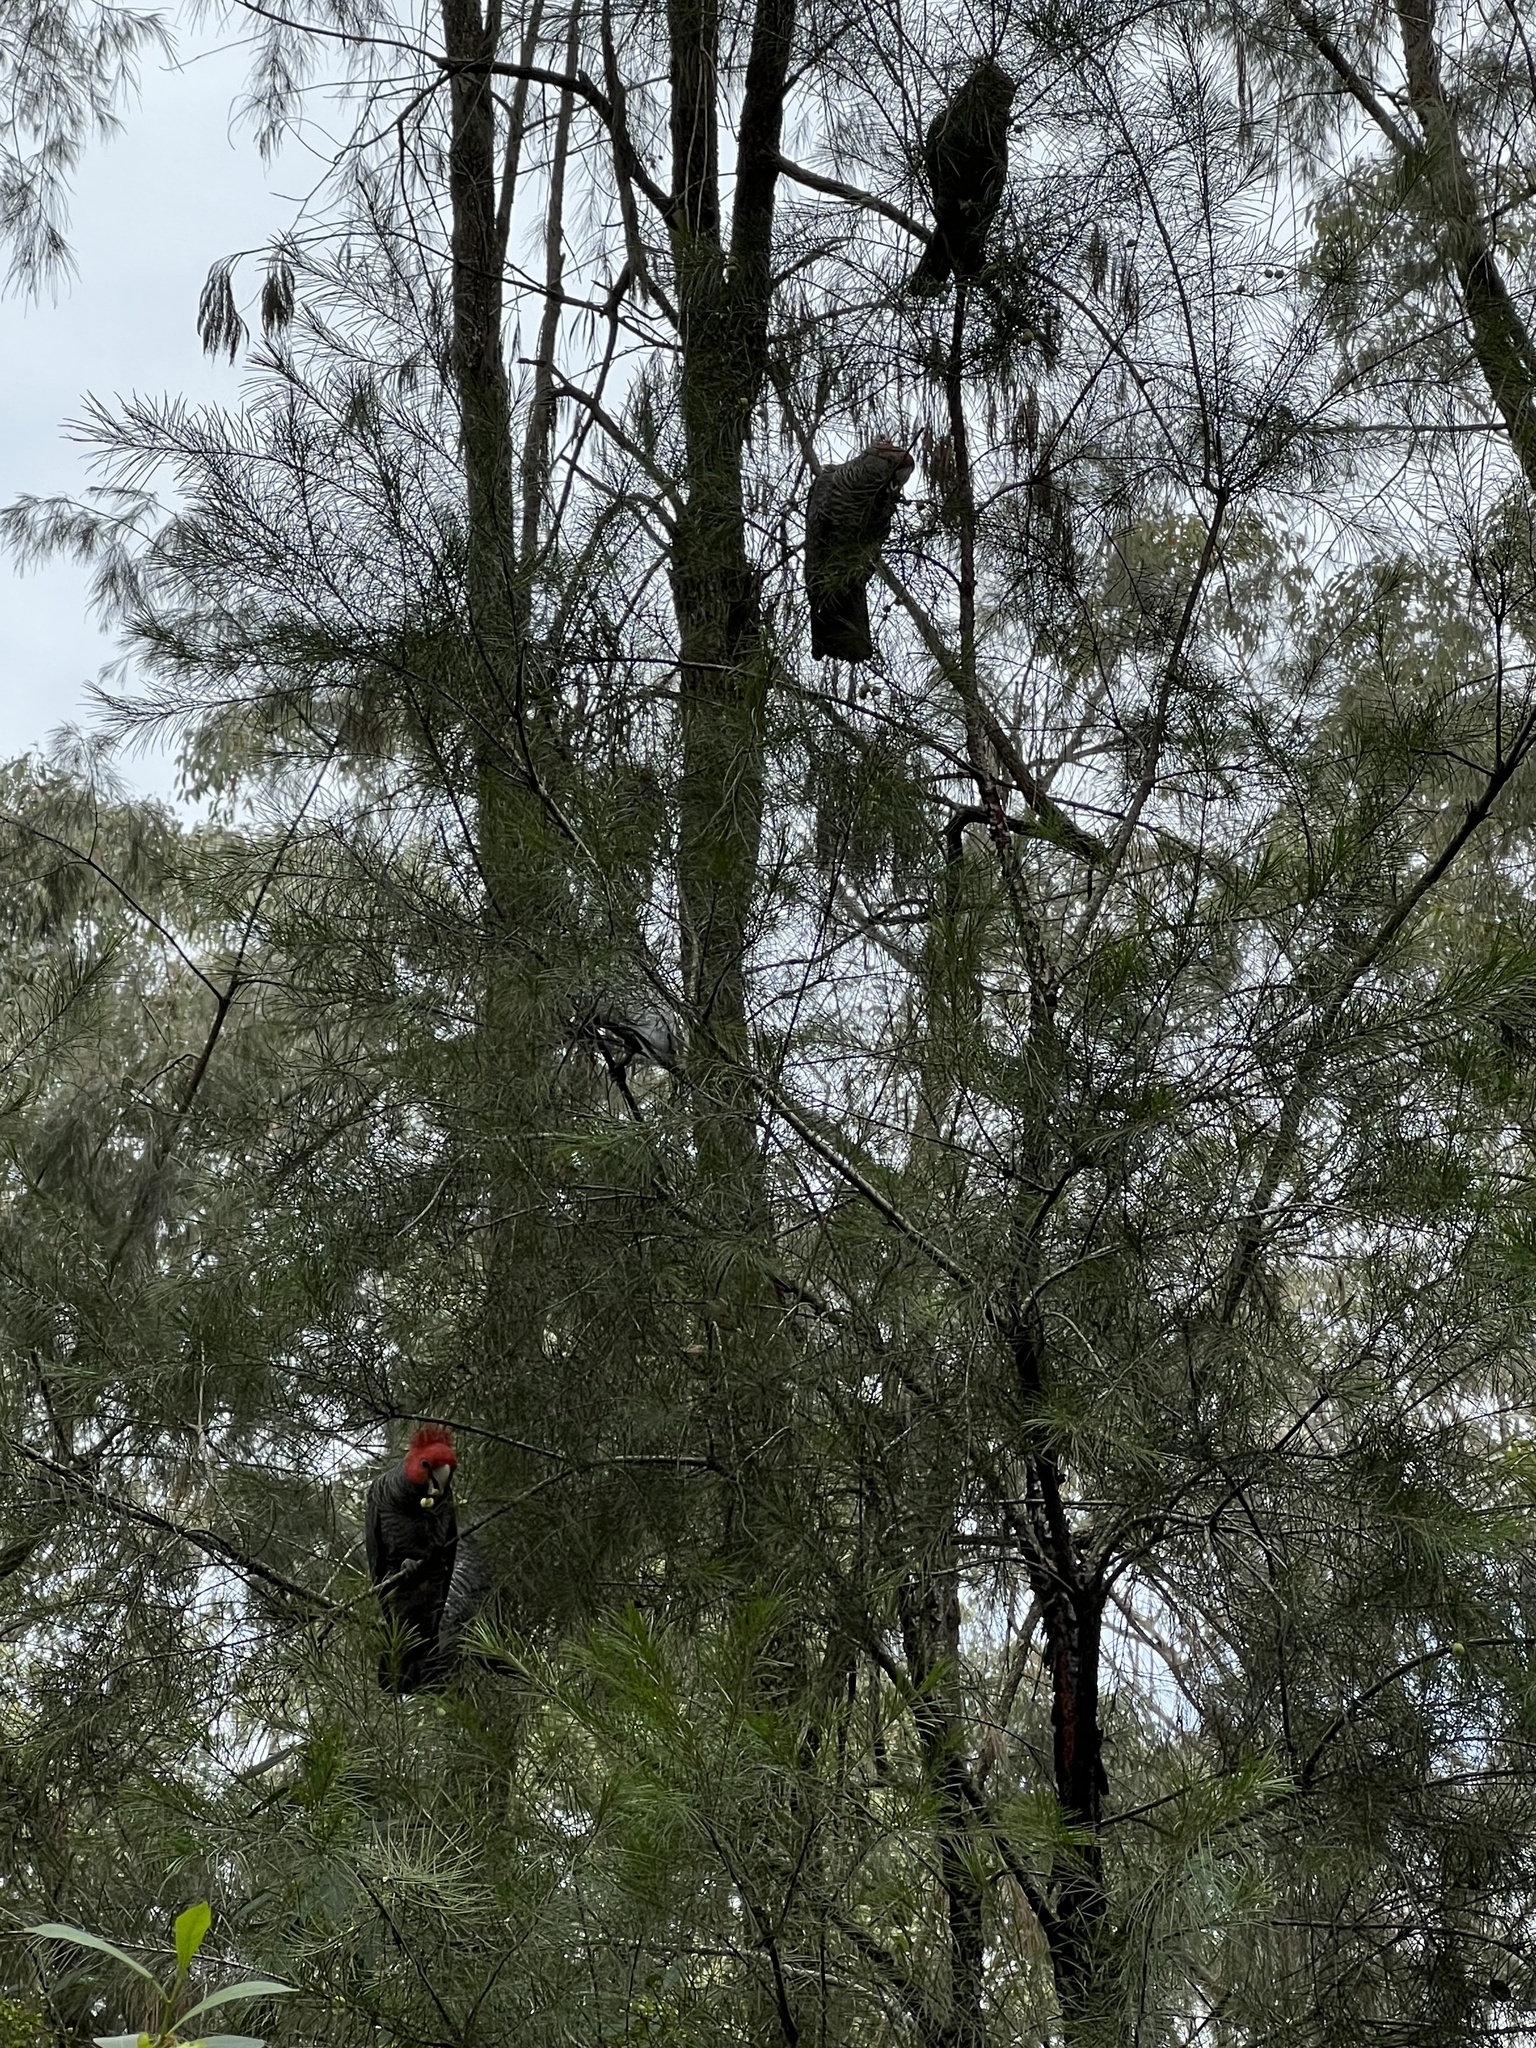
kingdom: Animalia
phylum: Chordata
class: Aves
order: Psittaciformes
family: Psittacidae
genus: Callocephalon
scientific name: Callocephalon fimbriatum
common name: Gang-gang cockatoo
